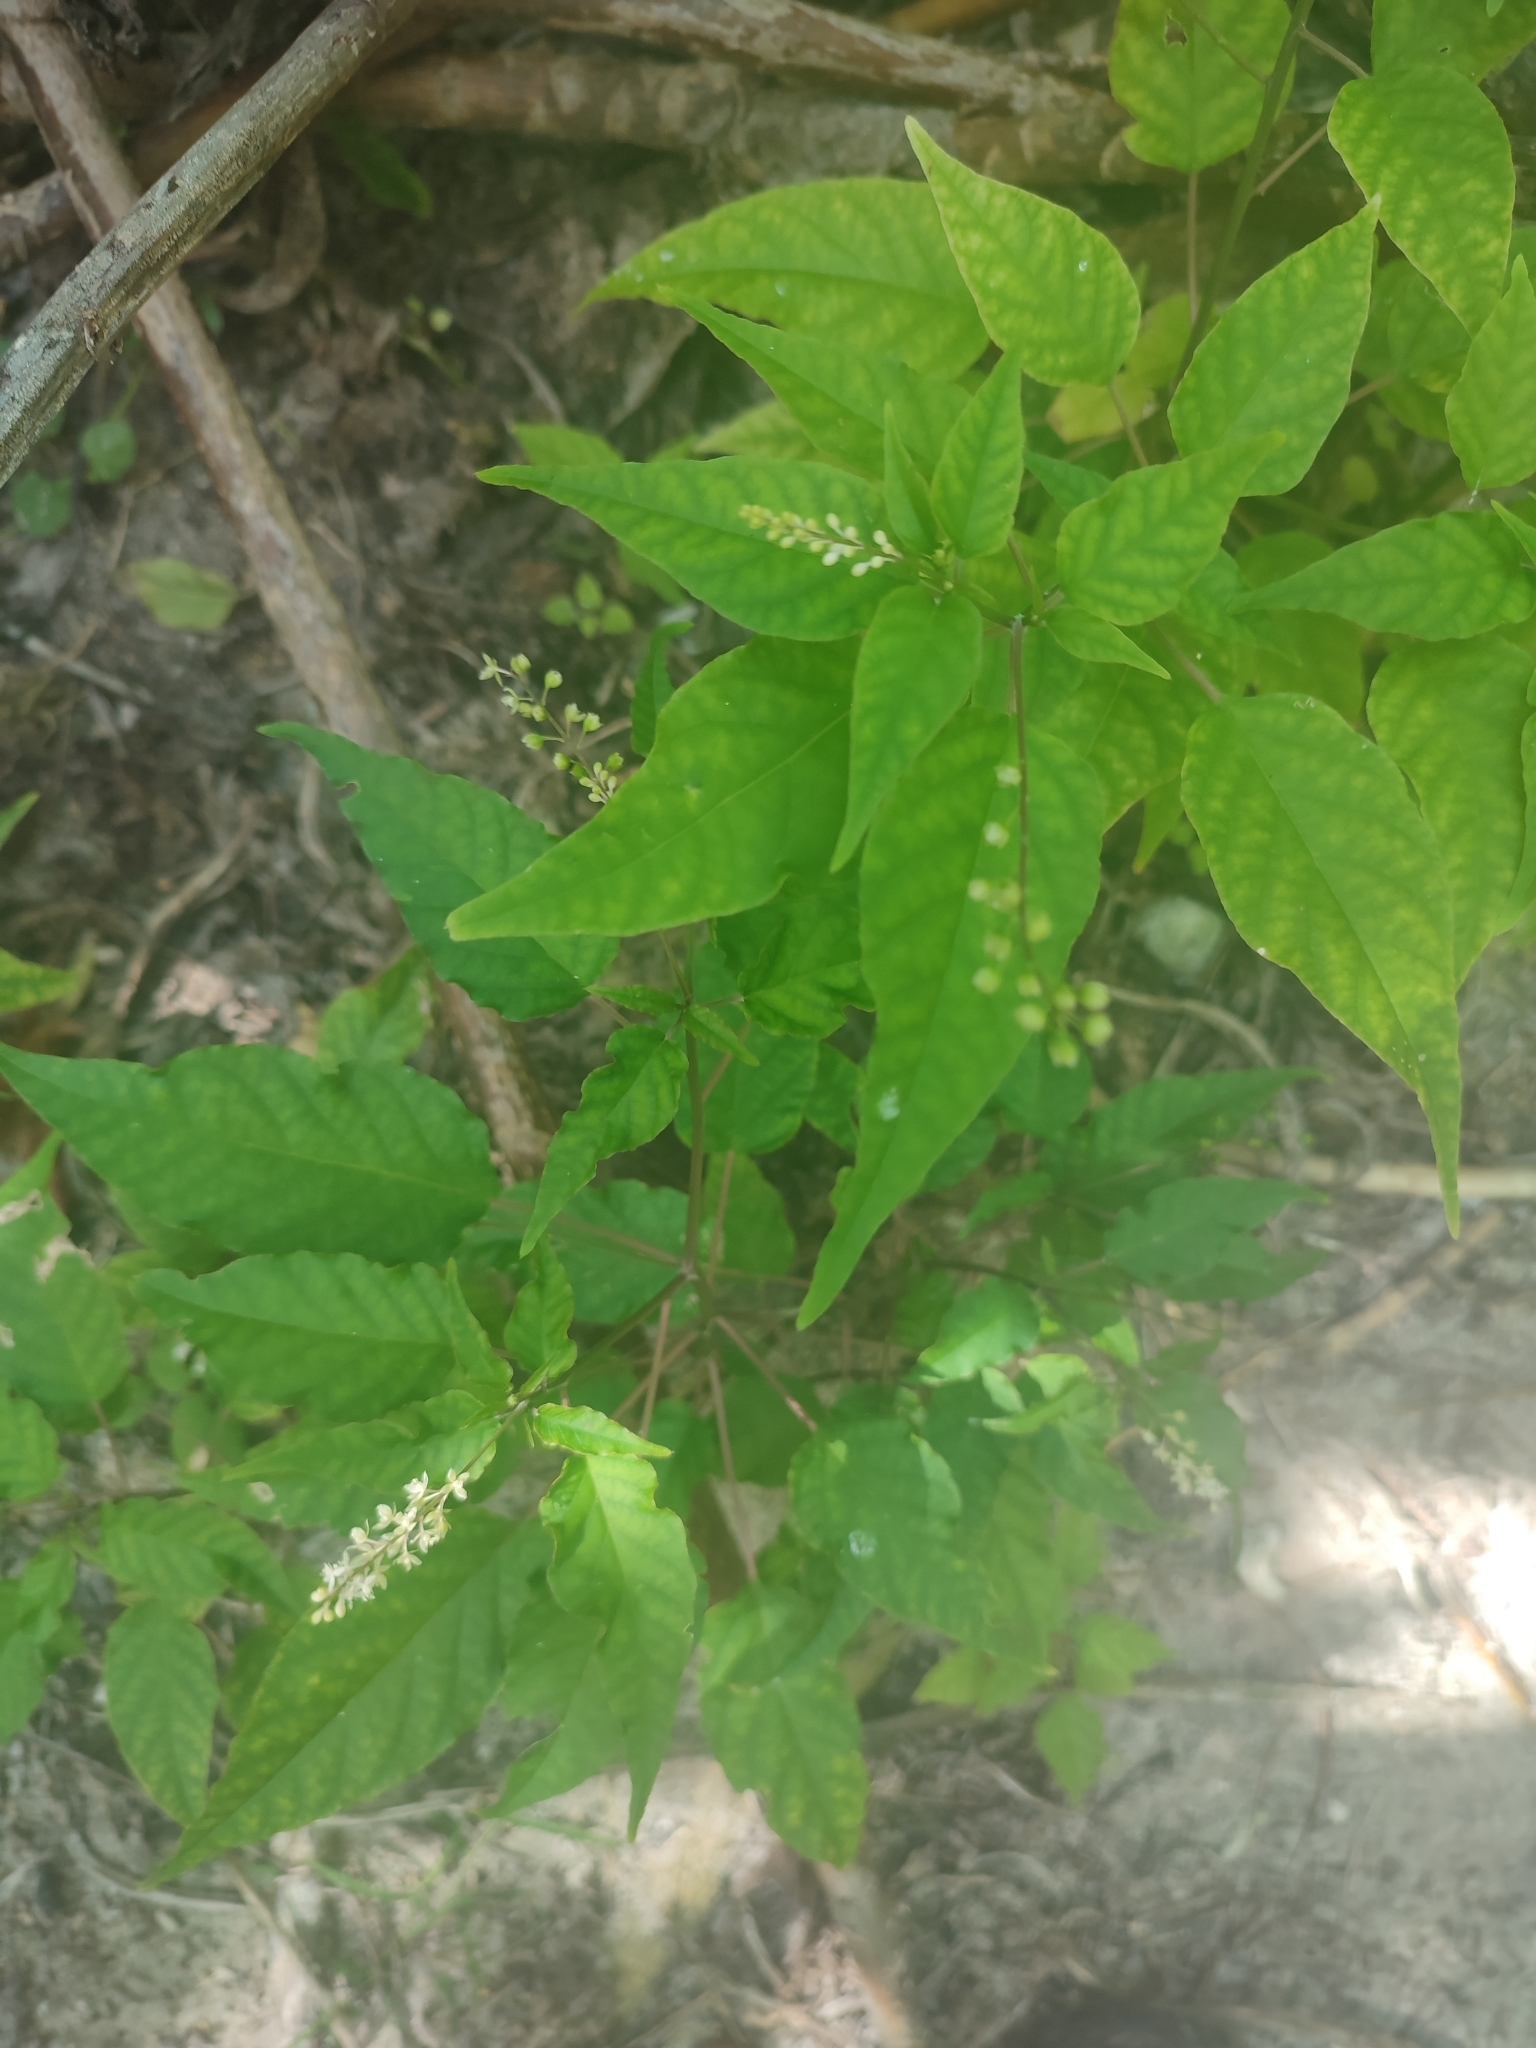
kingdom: Plantae
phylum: Tracheophyta
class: Magnoliopsida
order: Caryophyllales
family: Phytolaccaceae
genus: Rivina
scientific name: Rivina humilis
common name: Rougeplant
